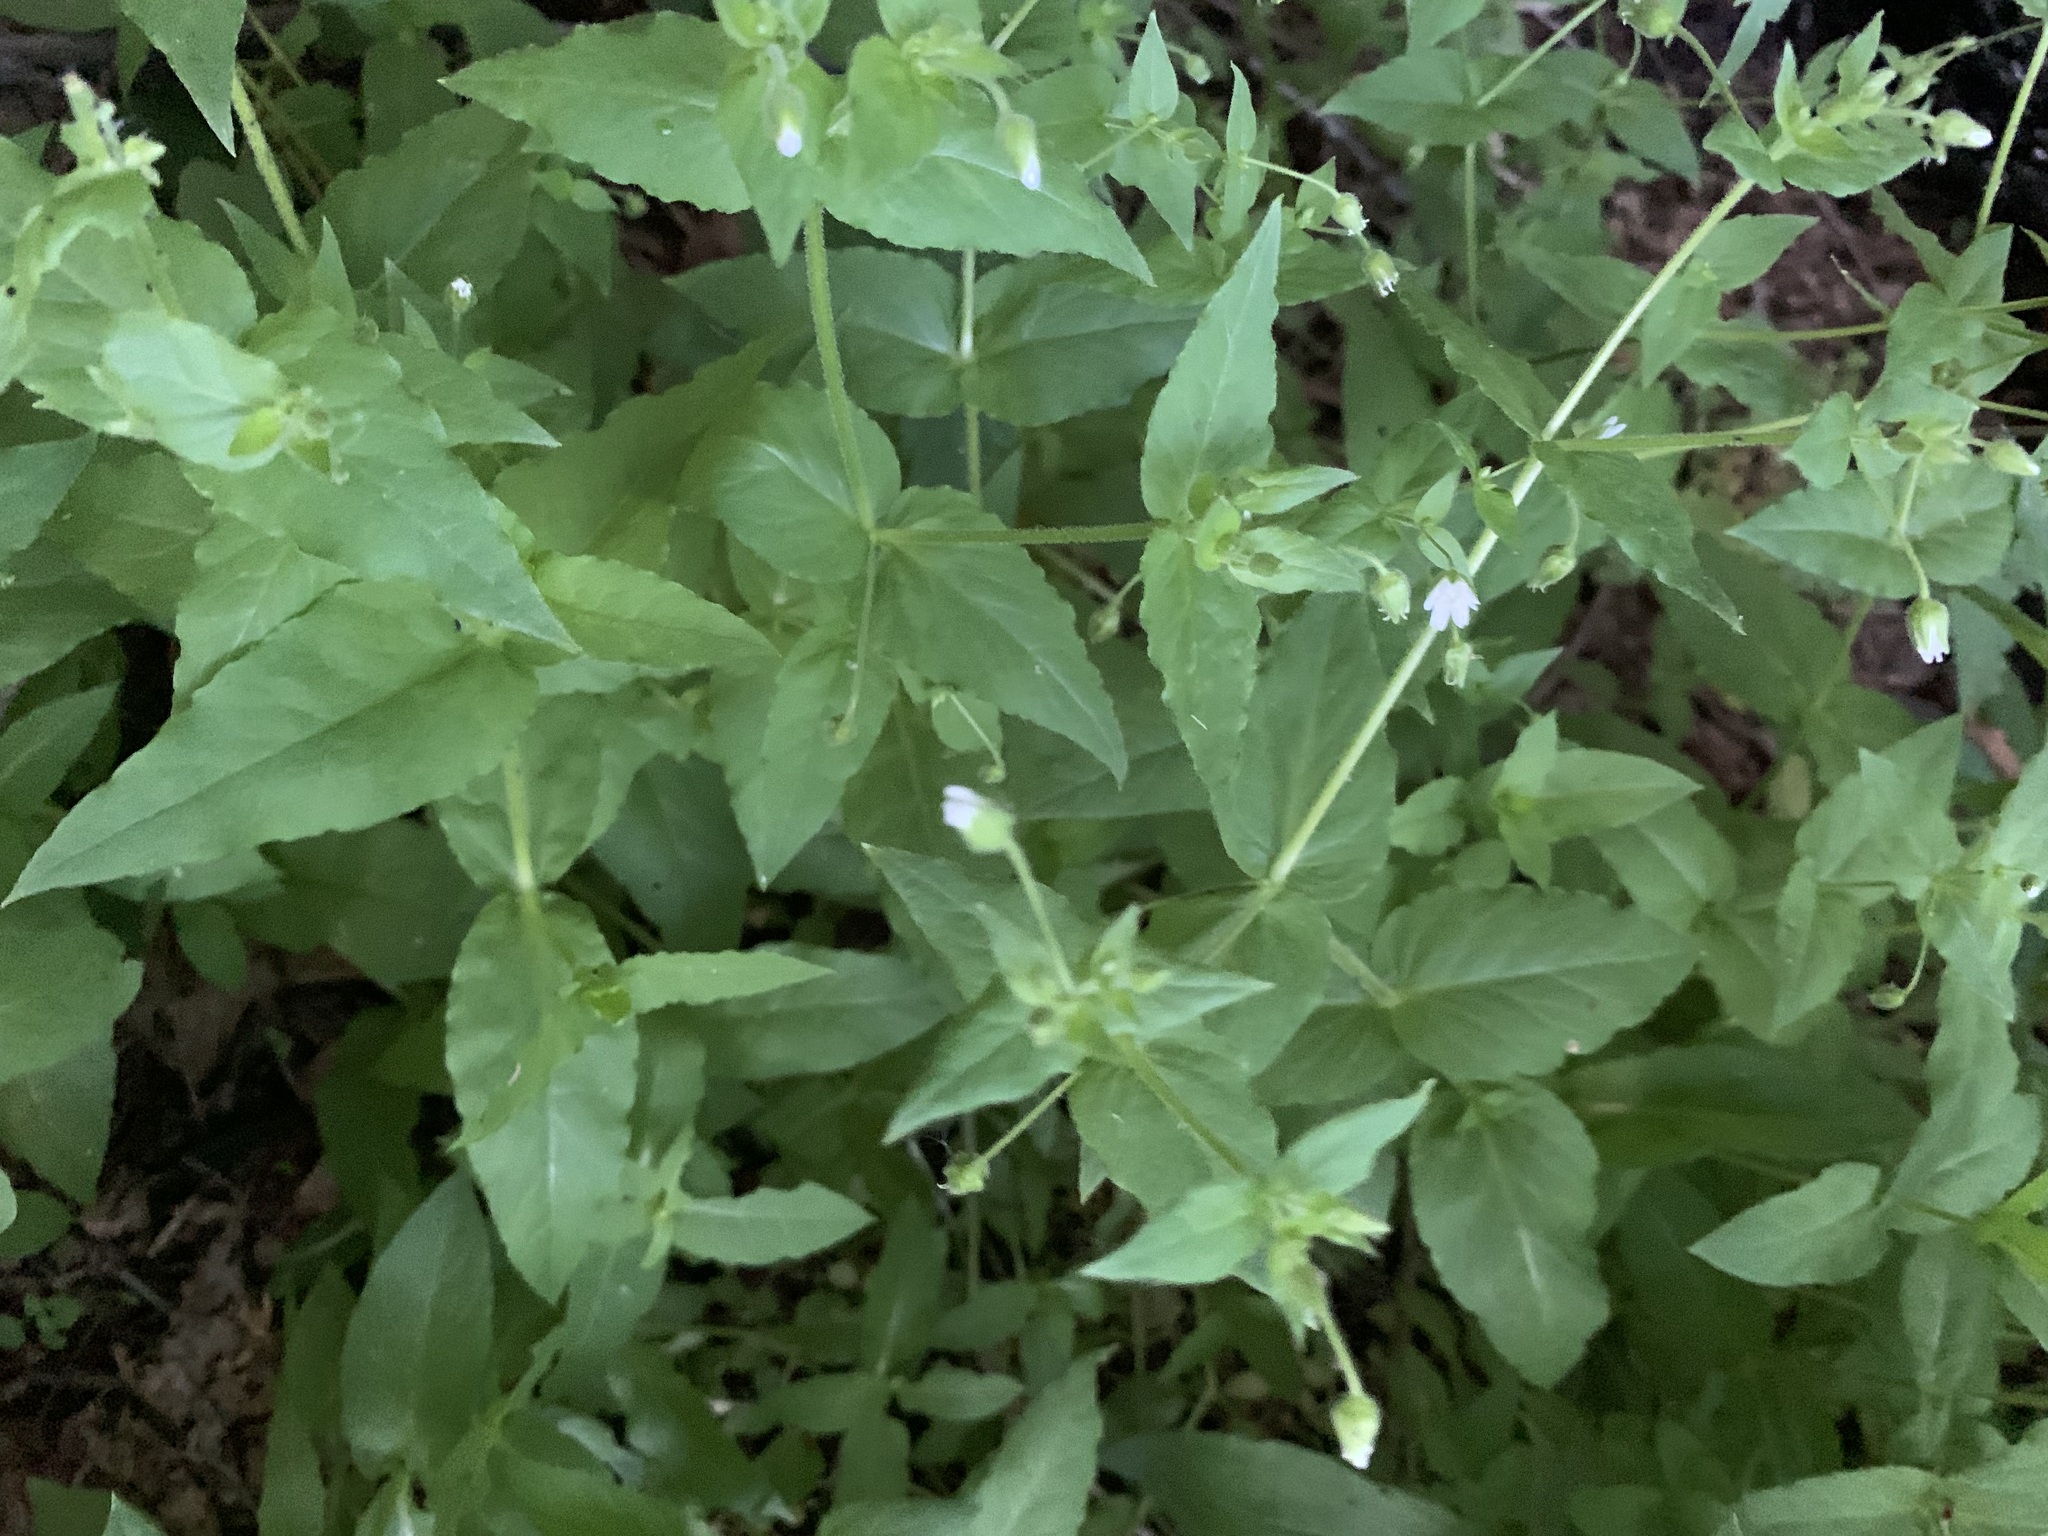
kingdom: Plantae
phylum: Tracheophyta
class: Magnoliopsida
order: Caryophyllales
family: Caryophyllaceae
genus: Stellaria
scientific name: Stellaria aquatica
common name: Water chickweed
